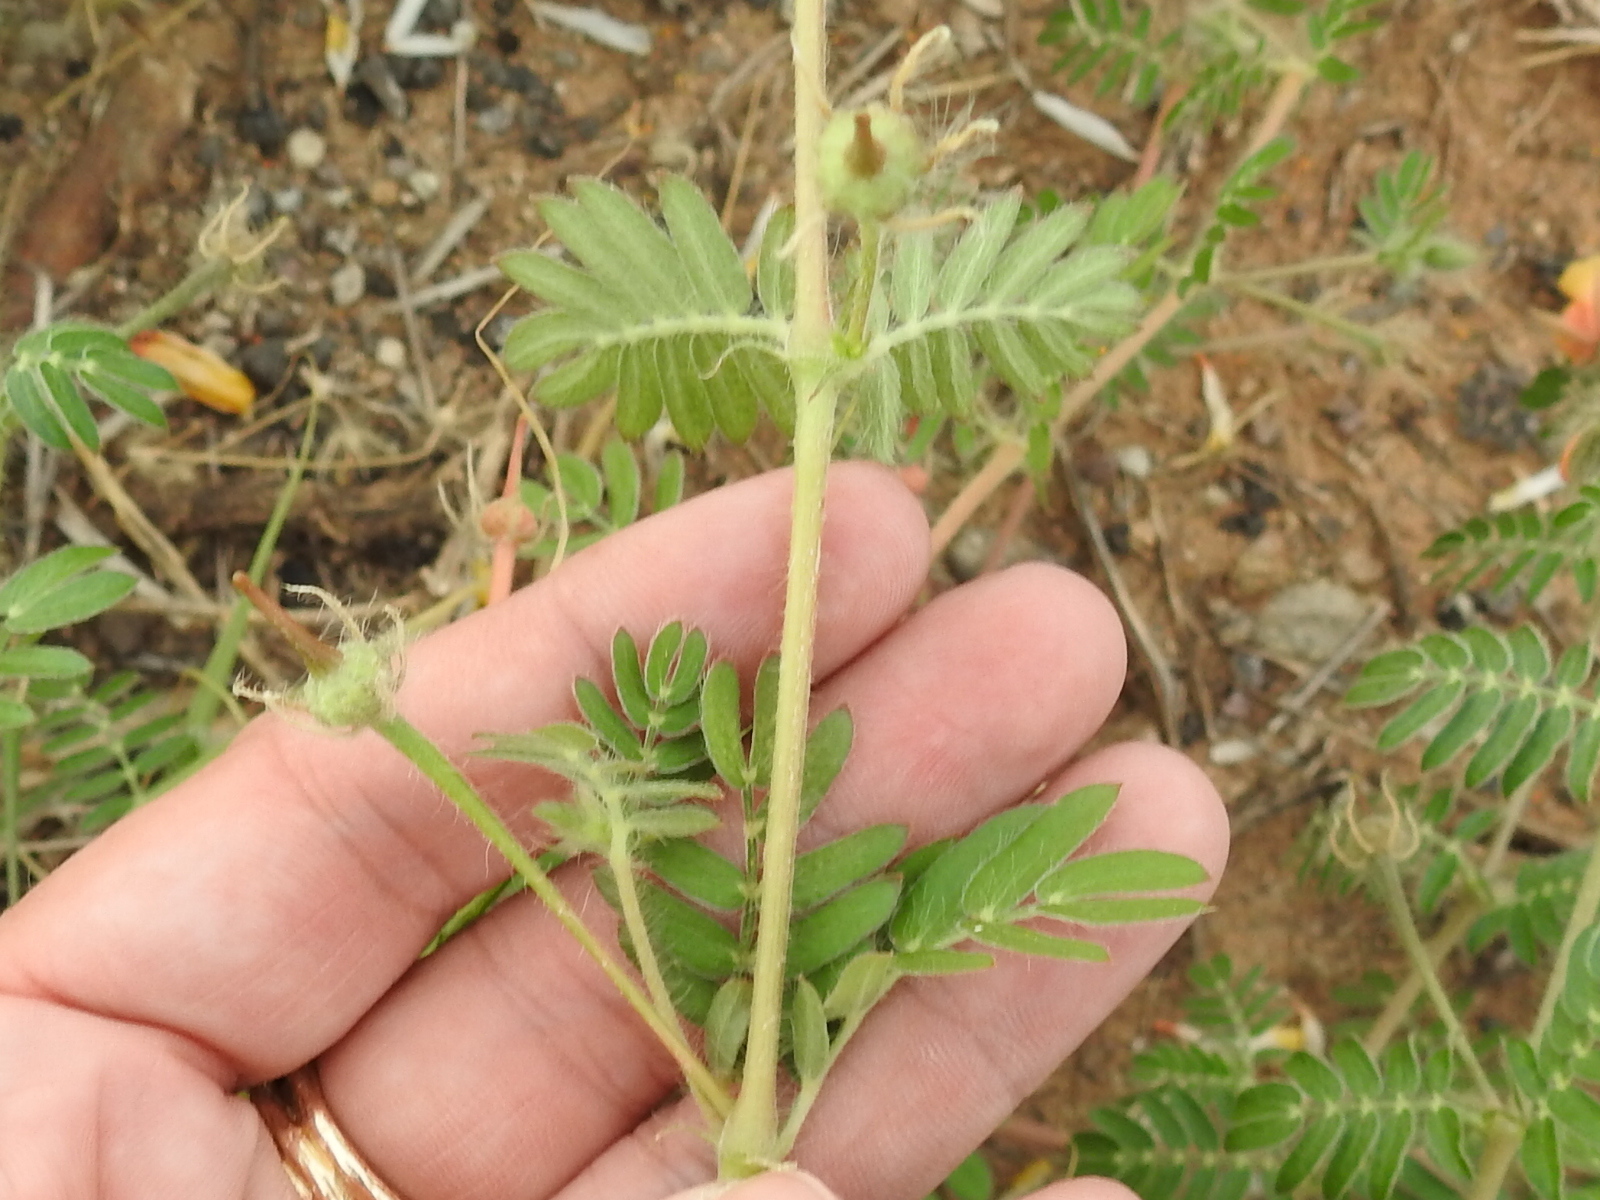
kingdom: Plantae
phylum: Tracheophyta
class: Magnoliopsida
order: Zygophyllales
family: Zygophyllaceae
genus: Kallstroemia
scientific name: Kallstroemia grandiflora
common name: Arizona-poppy
